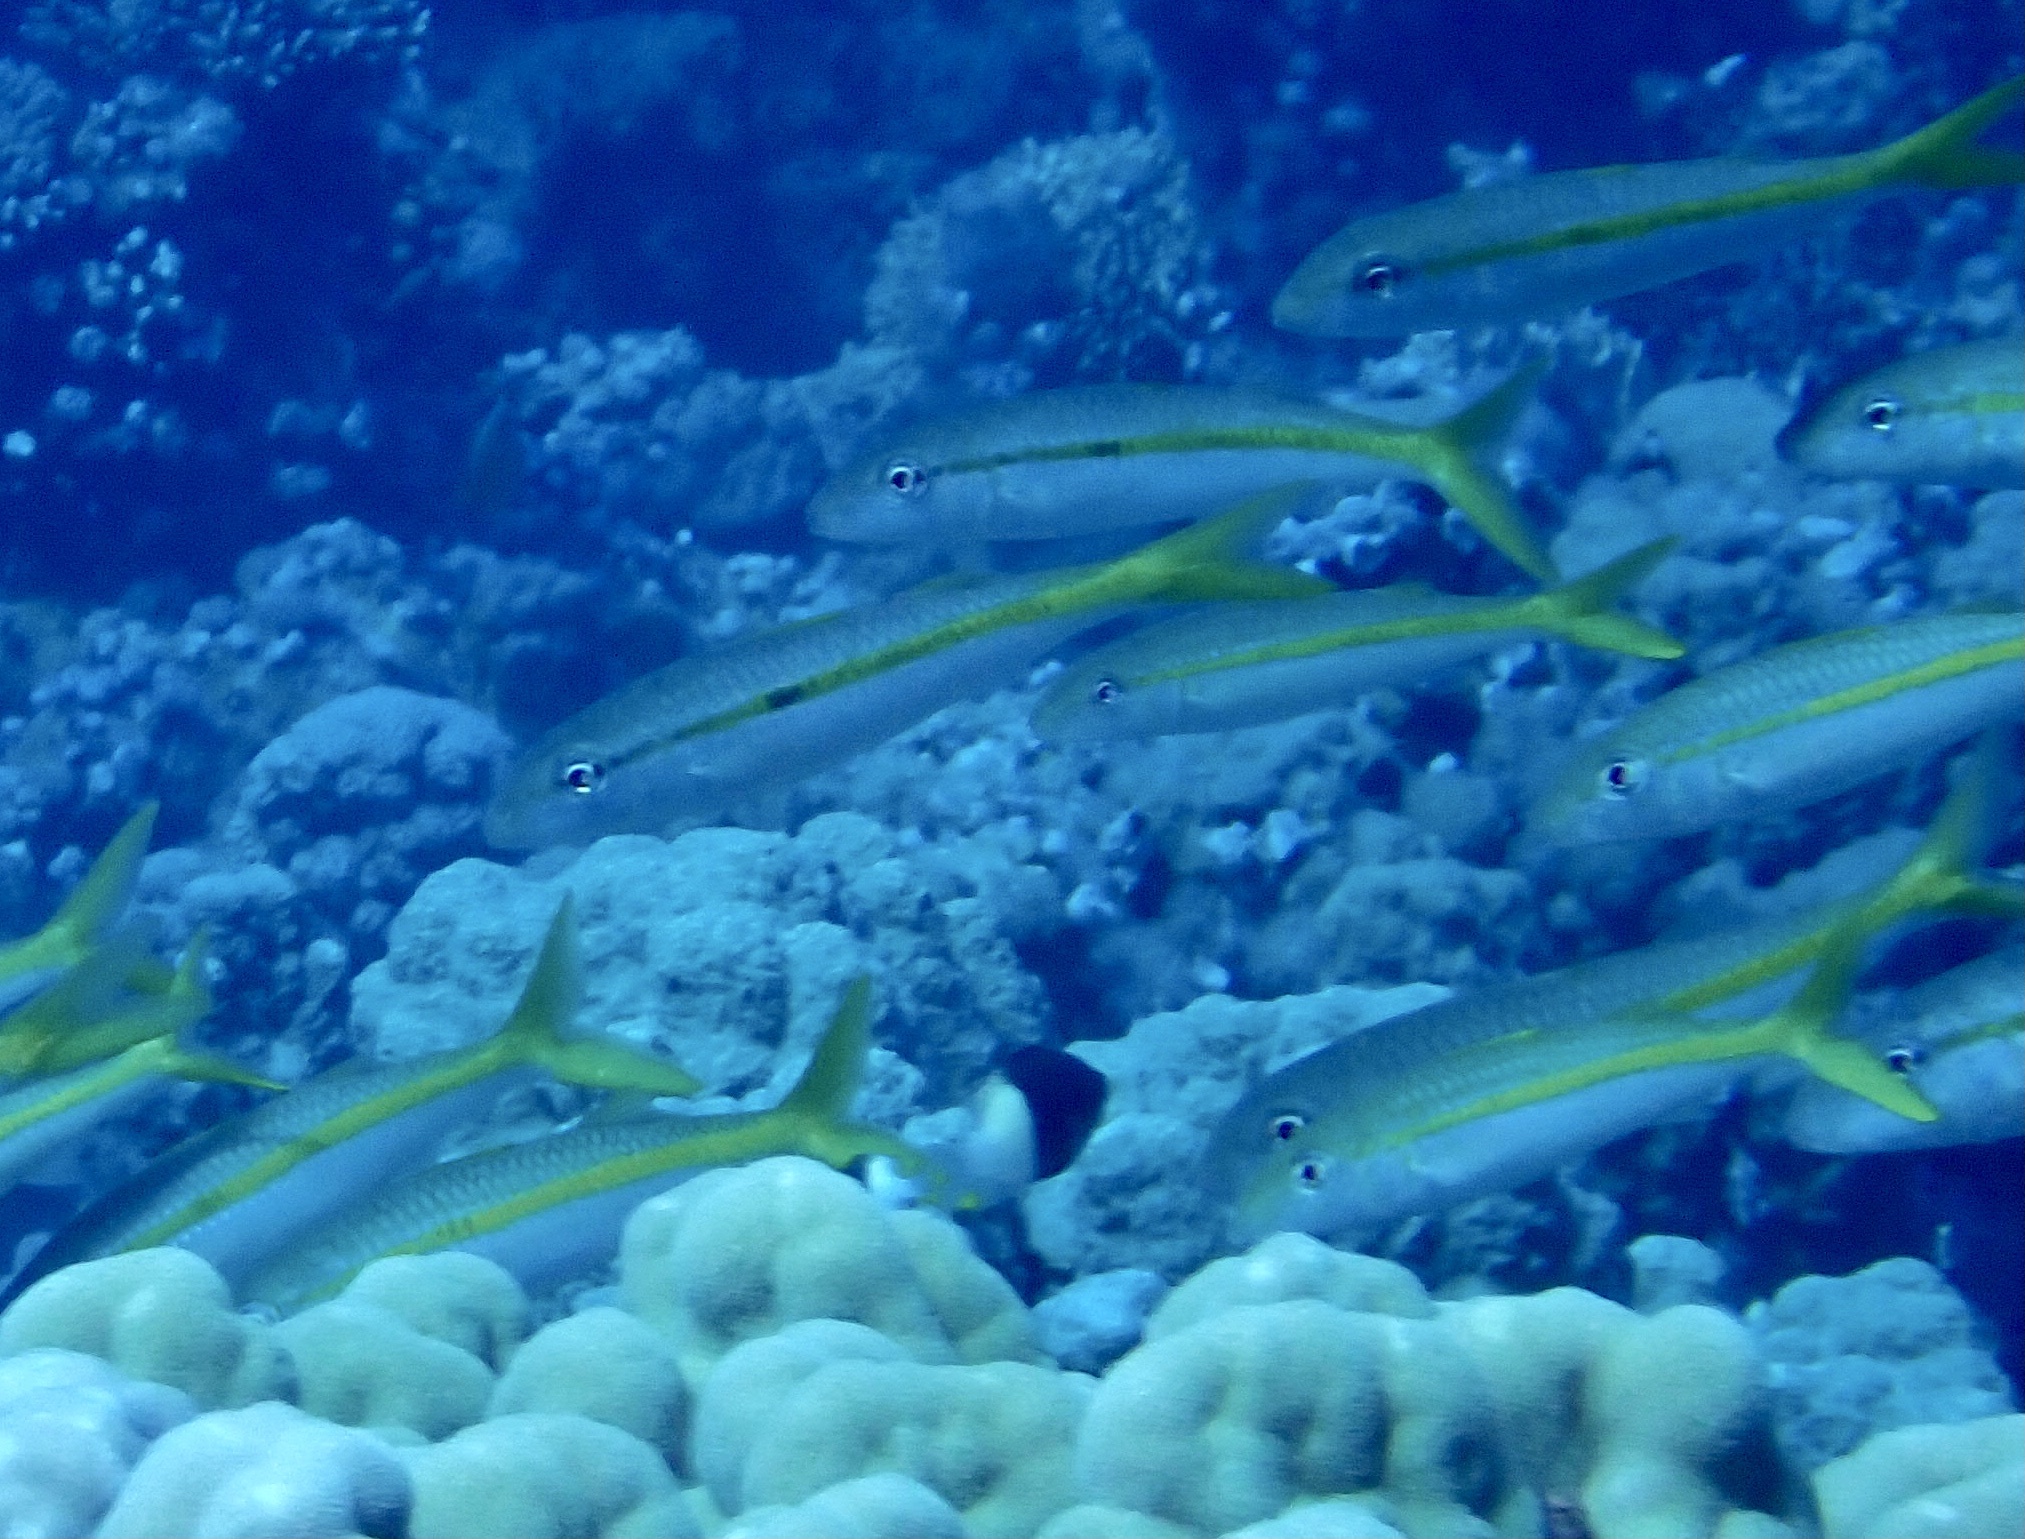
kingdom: Animalia
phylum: Chordata
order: Perciformes
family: Mullidae
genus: Mulloidichthys
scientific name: Mulloidichthys flavolineatus
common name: Yellowstripe goatfish
